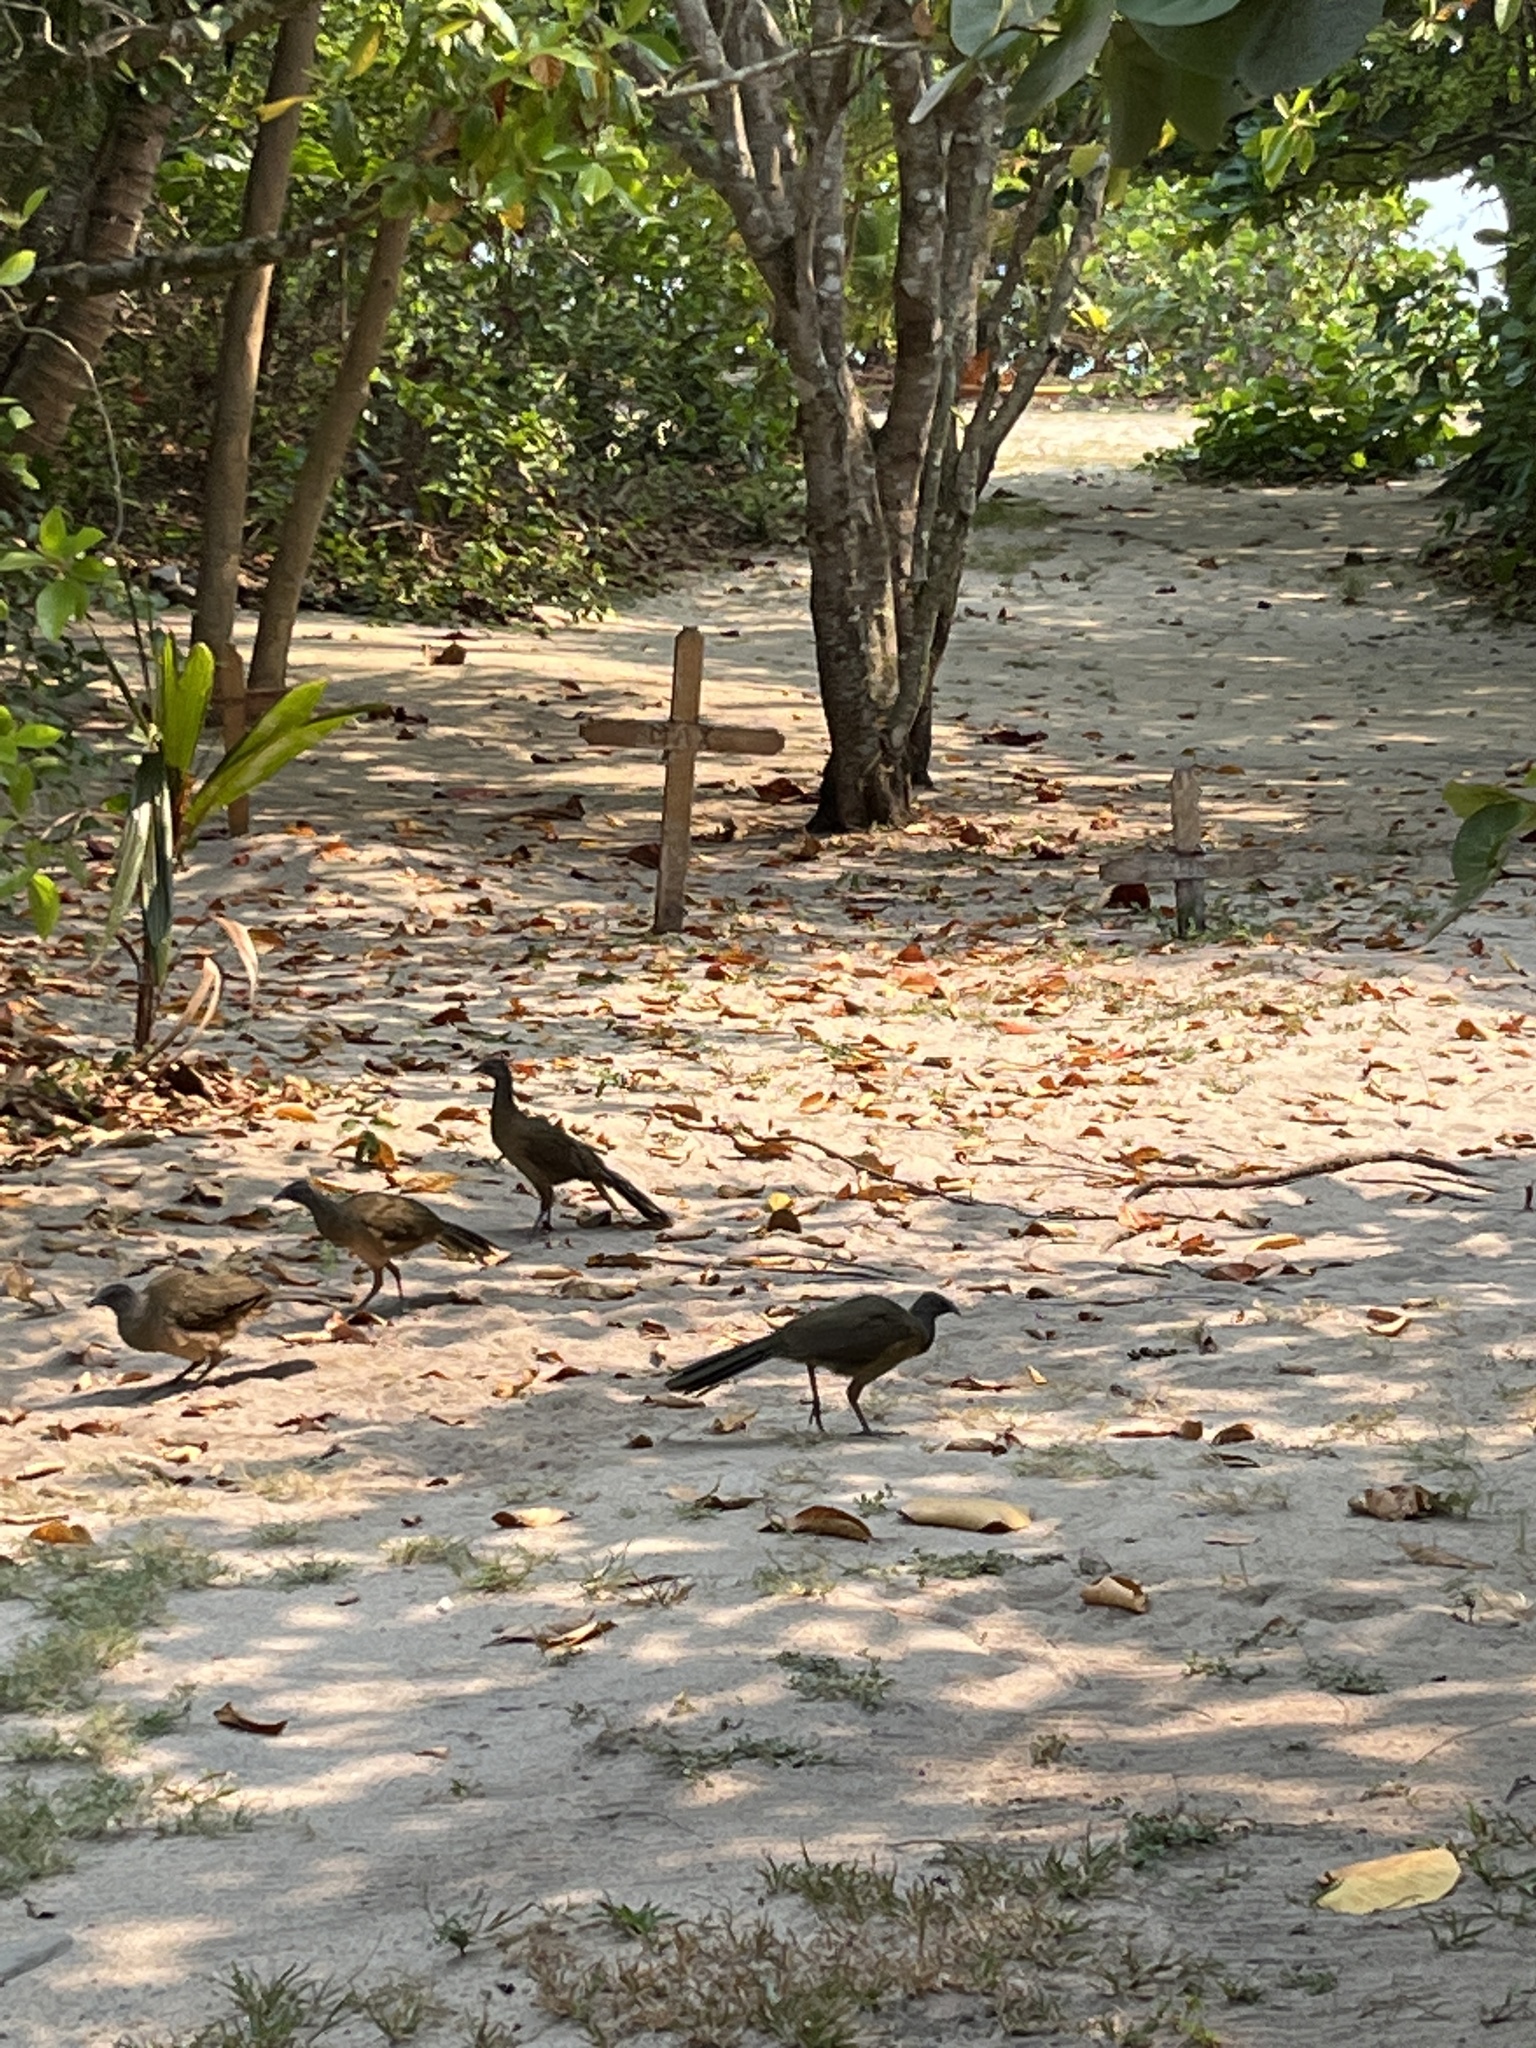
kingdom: Animalia
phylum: Chordata
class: Aves
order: Galliformes
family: Cracidae
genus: Ortalis
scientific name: Ortalis vetula
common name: Plain chachalaca
